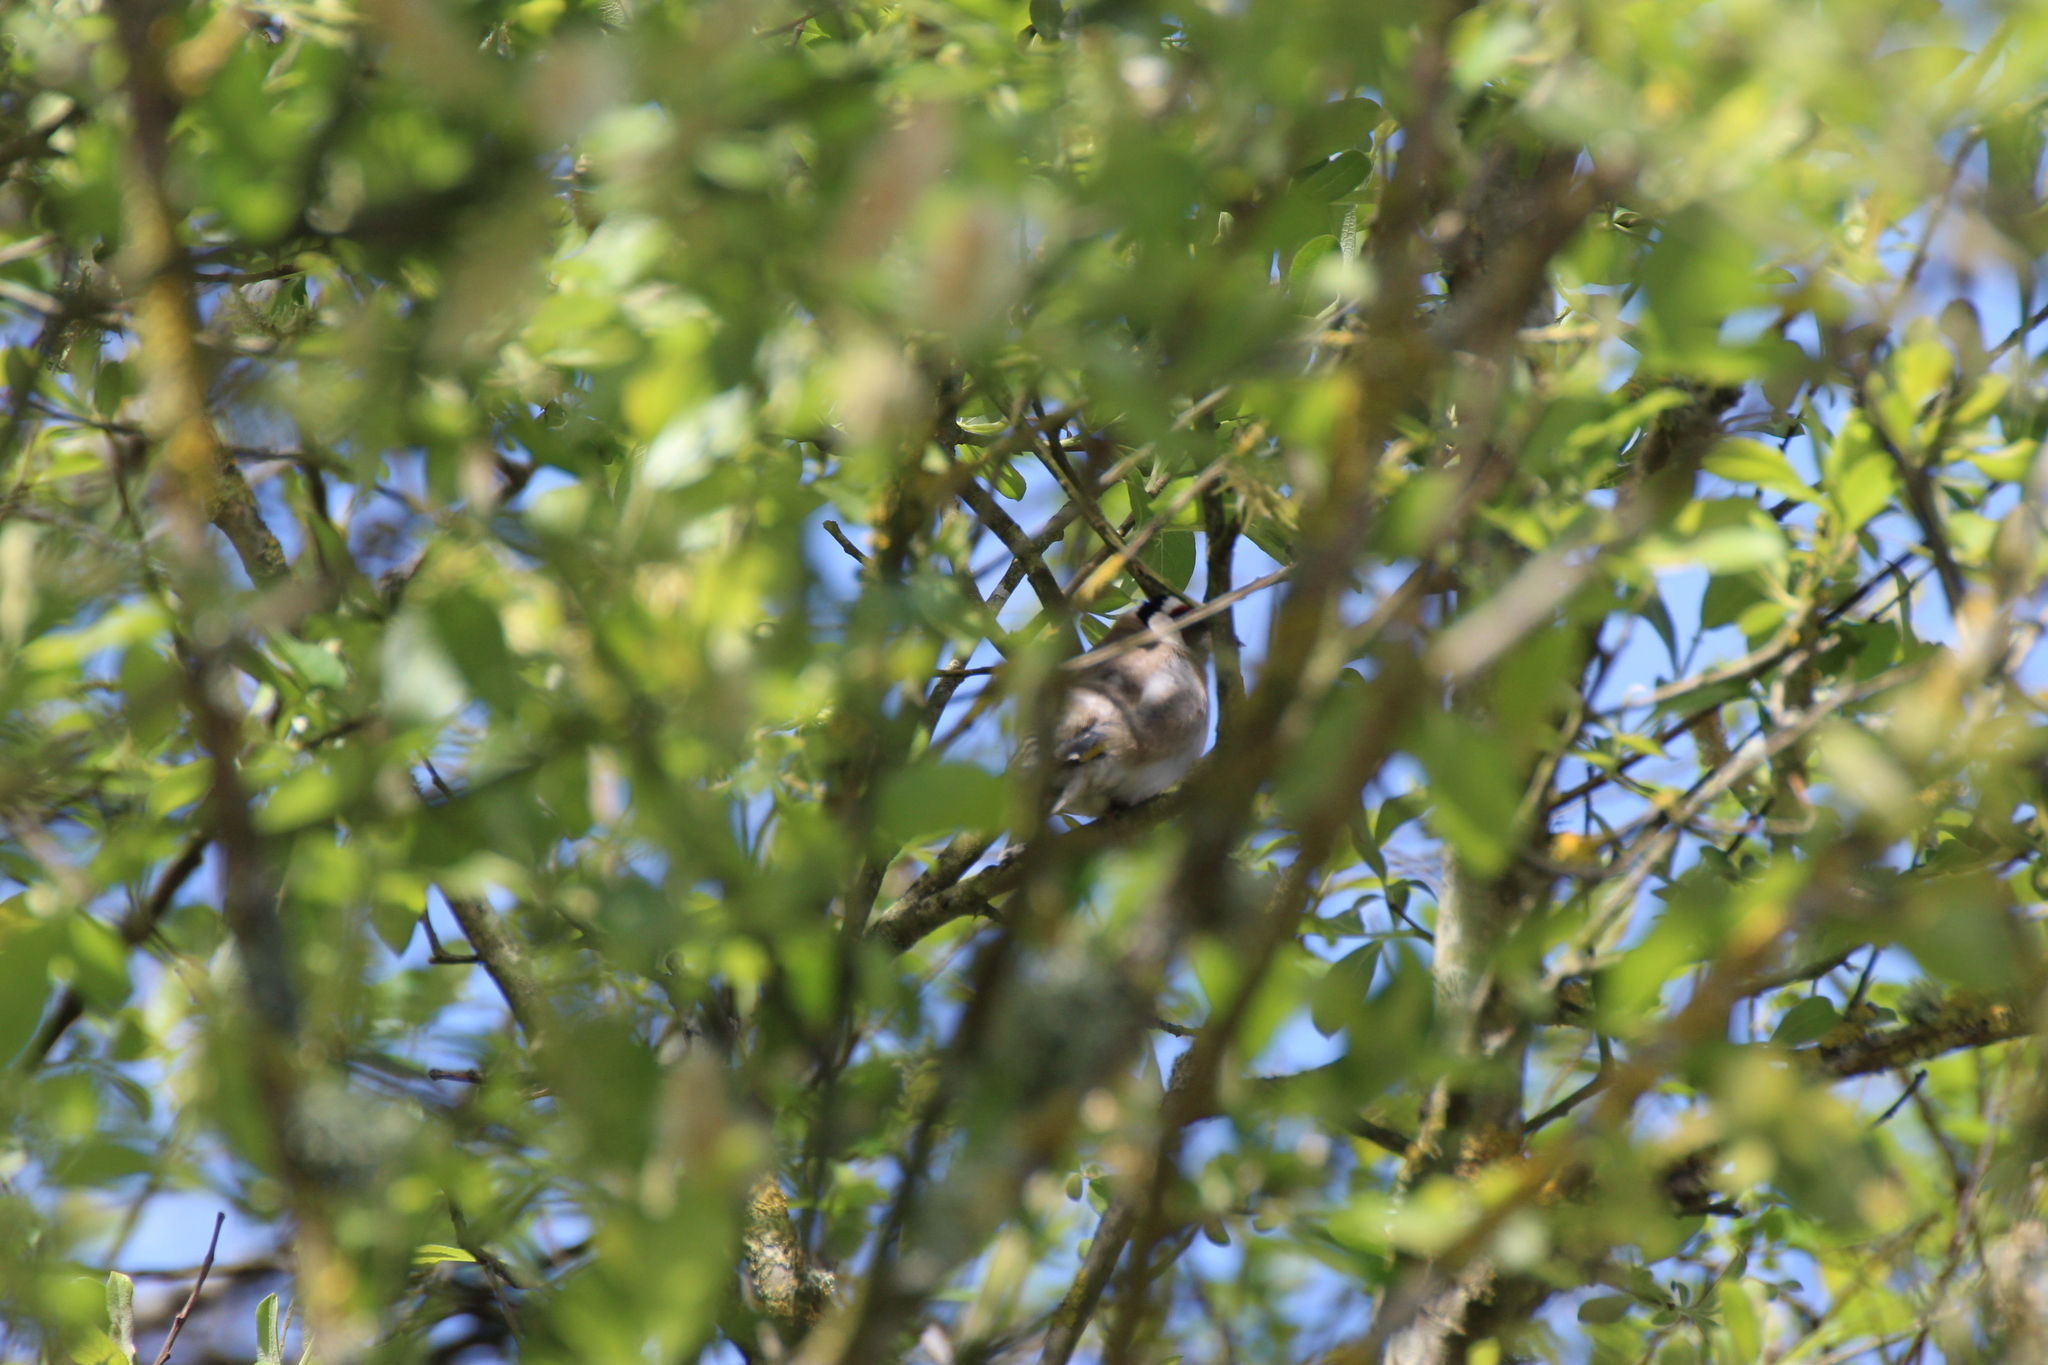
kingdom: Animalia
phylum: Chordata
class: Aves
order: Passeriformes
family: Fringillidae
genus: Carduelis
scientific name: Carduelis carduelis
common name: European goldfinch
